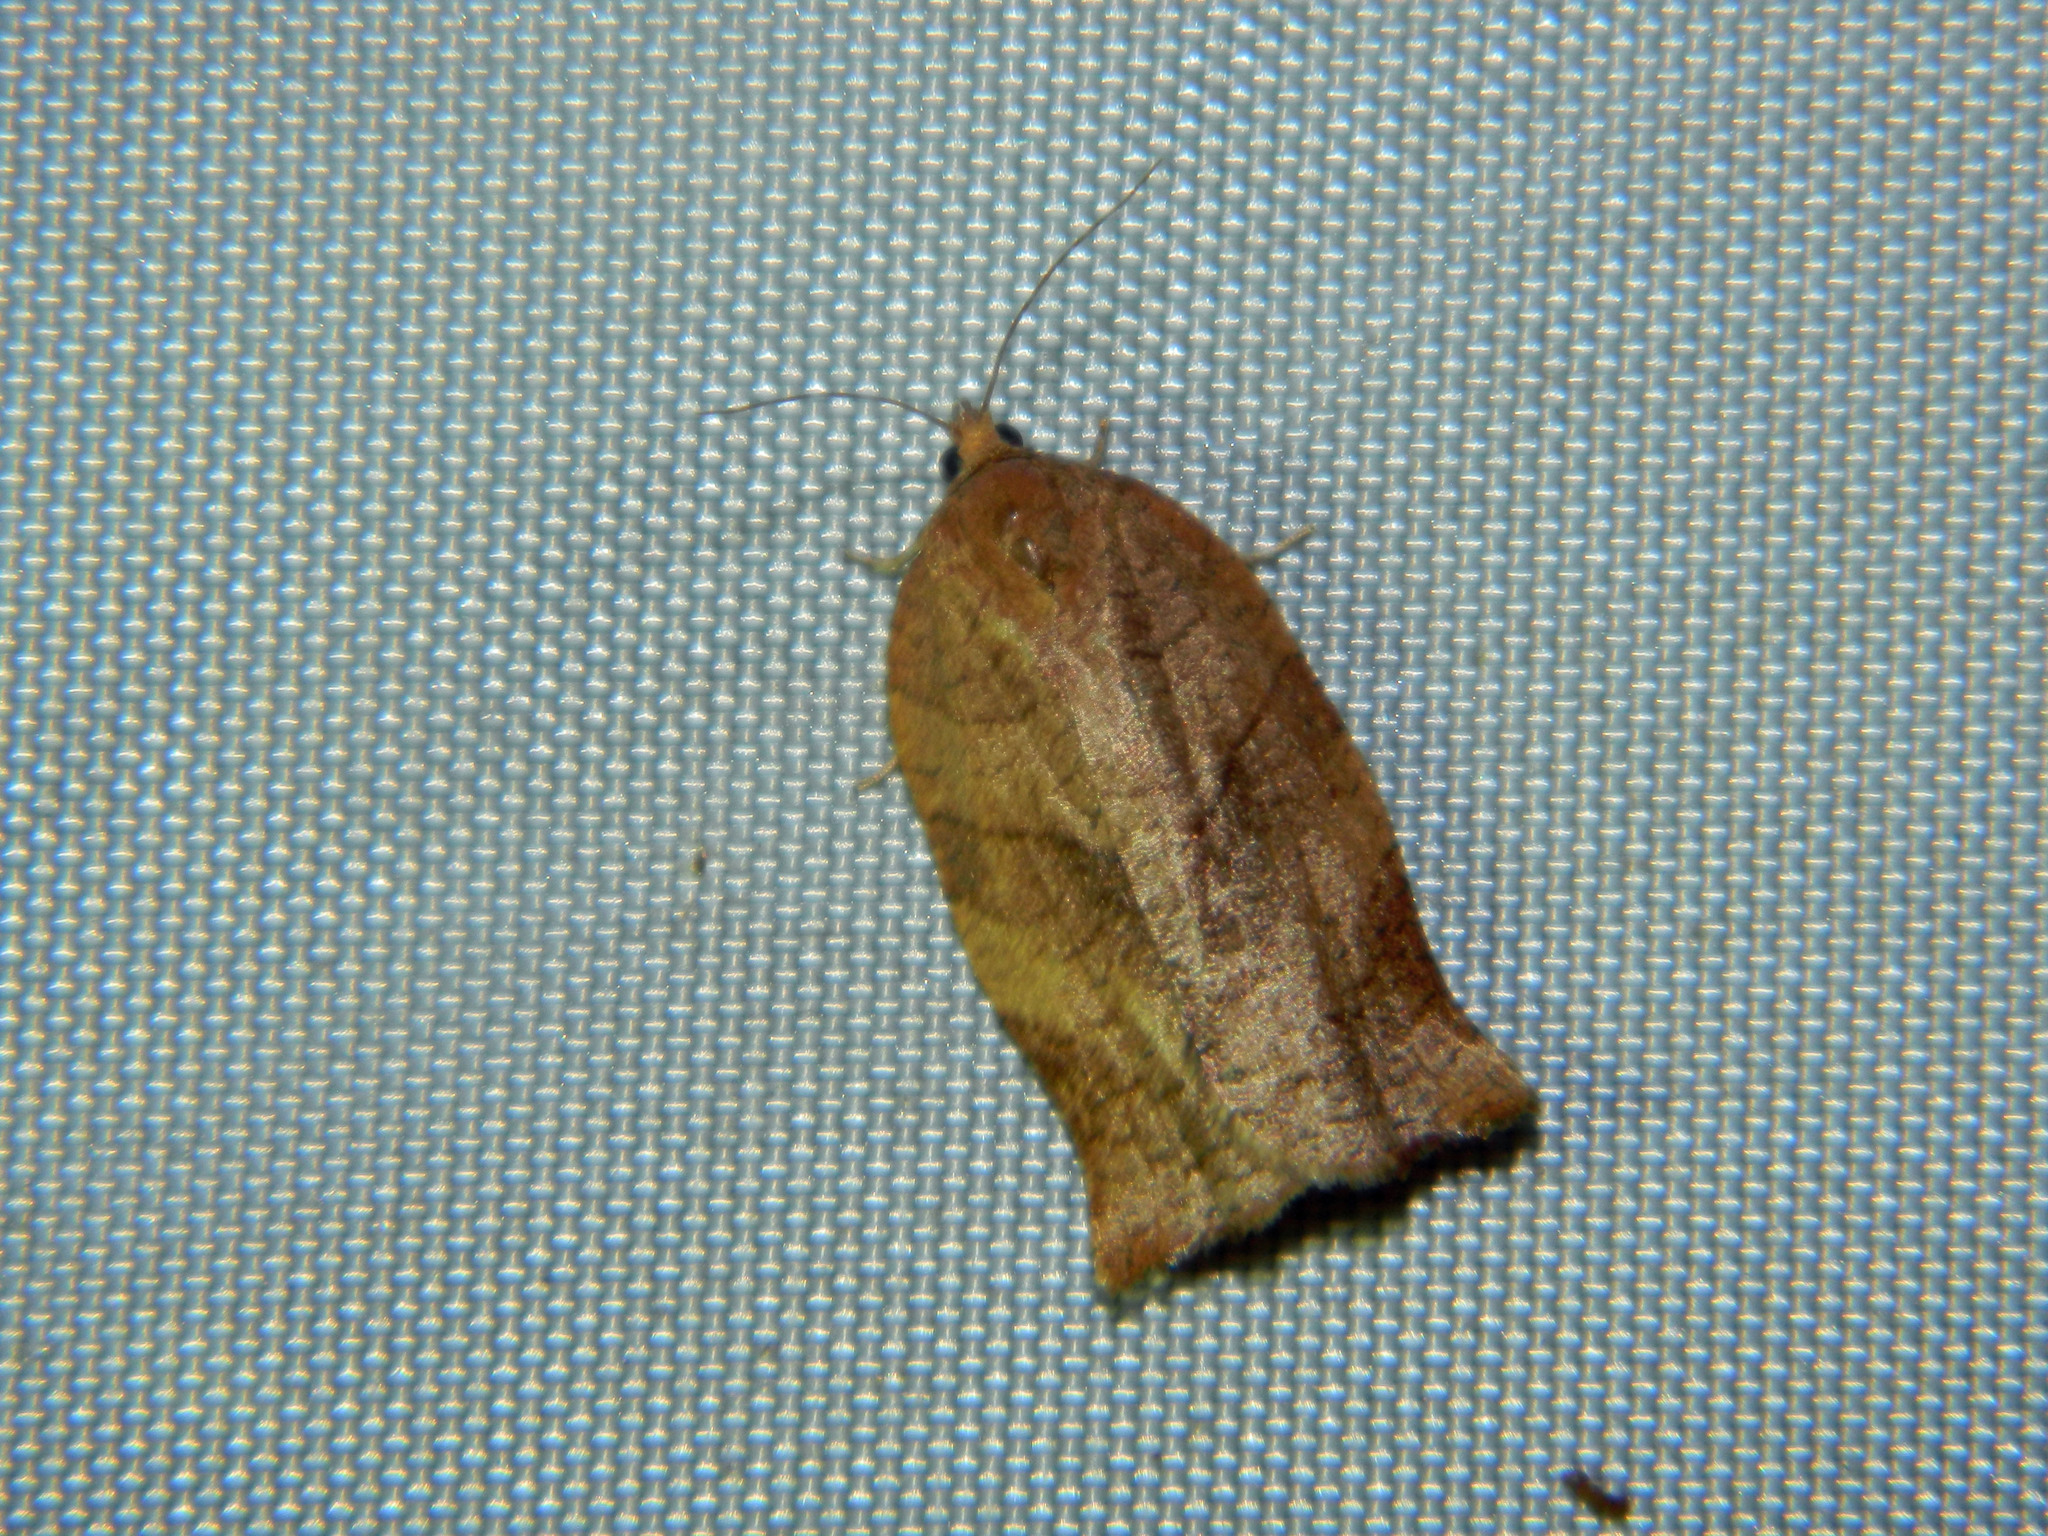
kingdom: Animalia
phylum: Arthropoda
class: Insecta
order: Lepidoptera
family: Tortricidae
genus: Choristoneura
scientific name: Choristoneura rosaceana
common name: Oblique-banded leafroller moth
